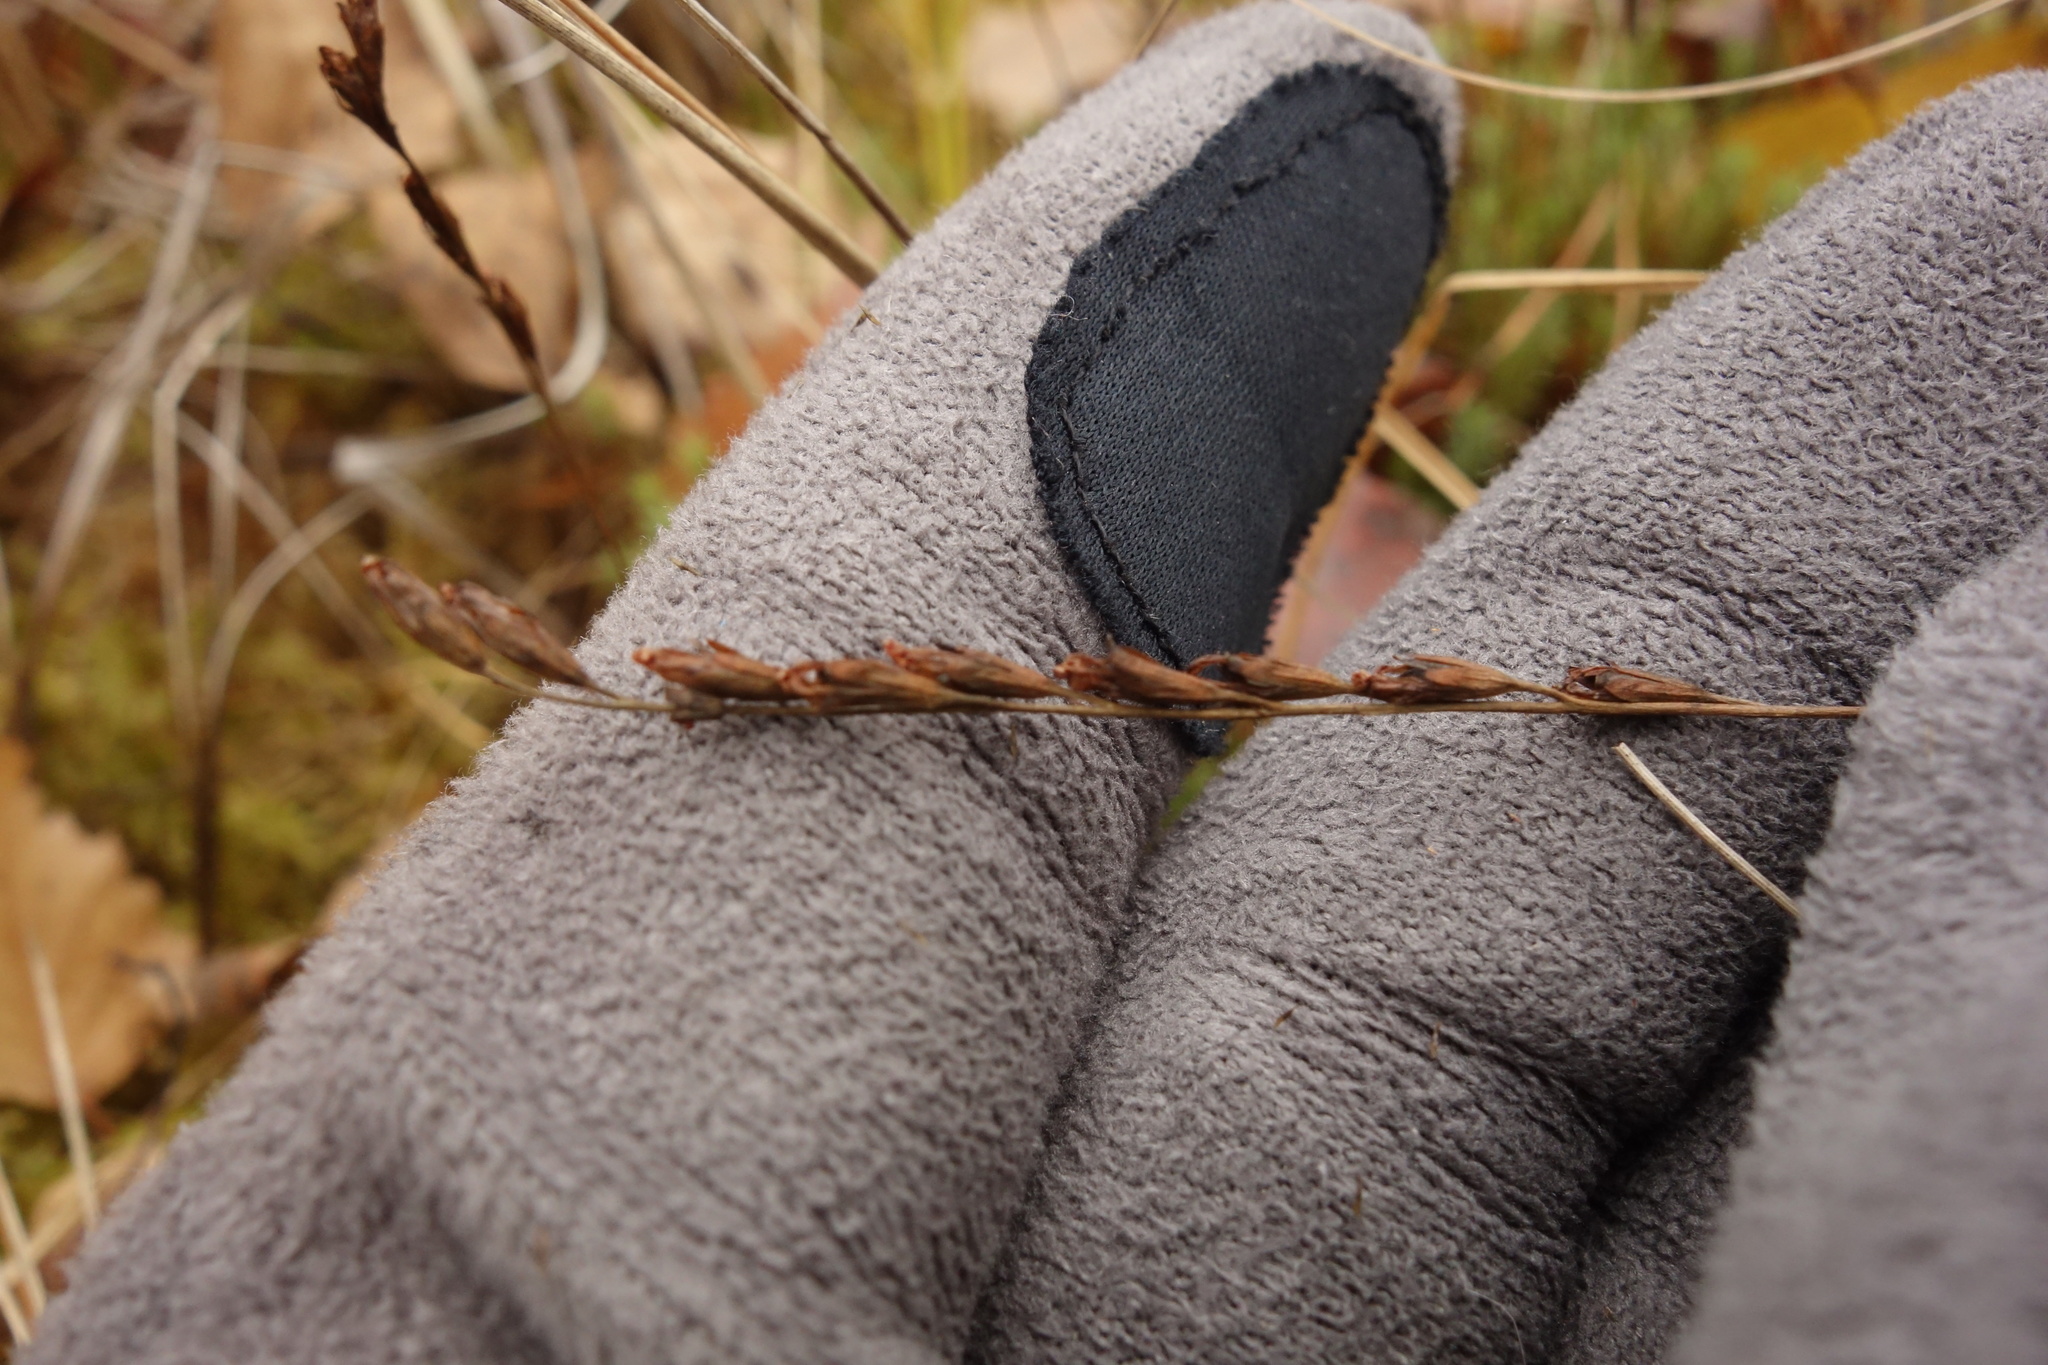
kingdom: Plantae
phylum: Tracheophyta
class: Magnoliopsida
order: Caryophyllales
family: Droseraceae
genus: Drosera
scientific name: Drosera rotundifolia
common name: Round-leaved sundew
